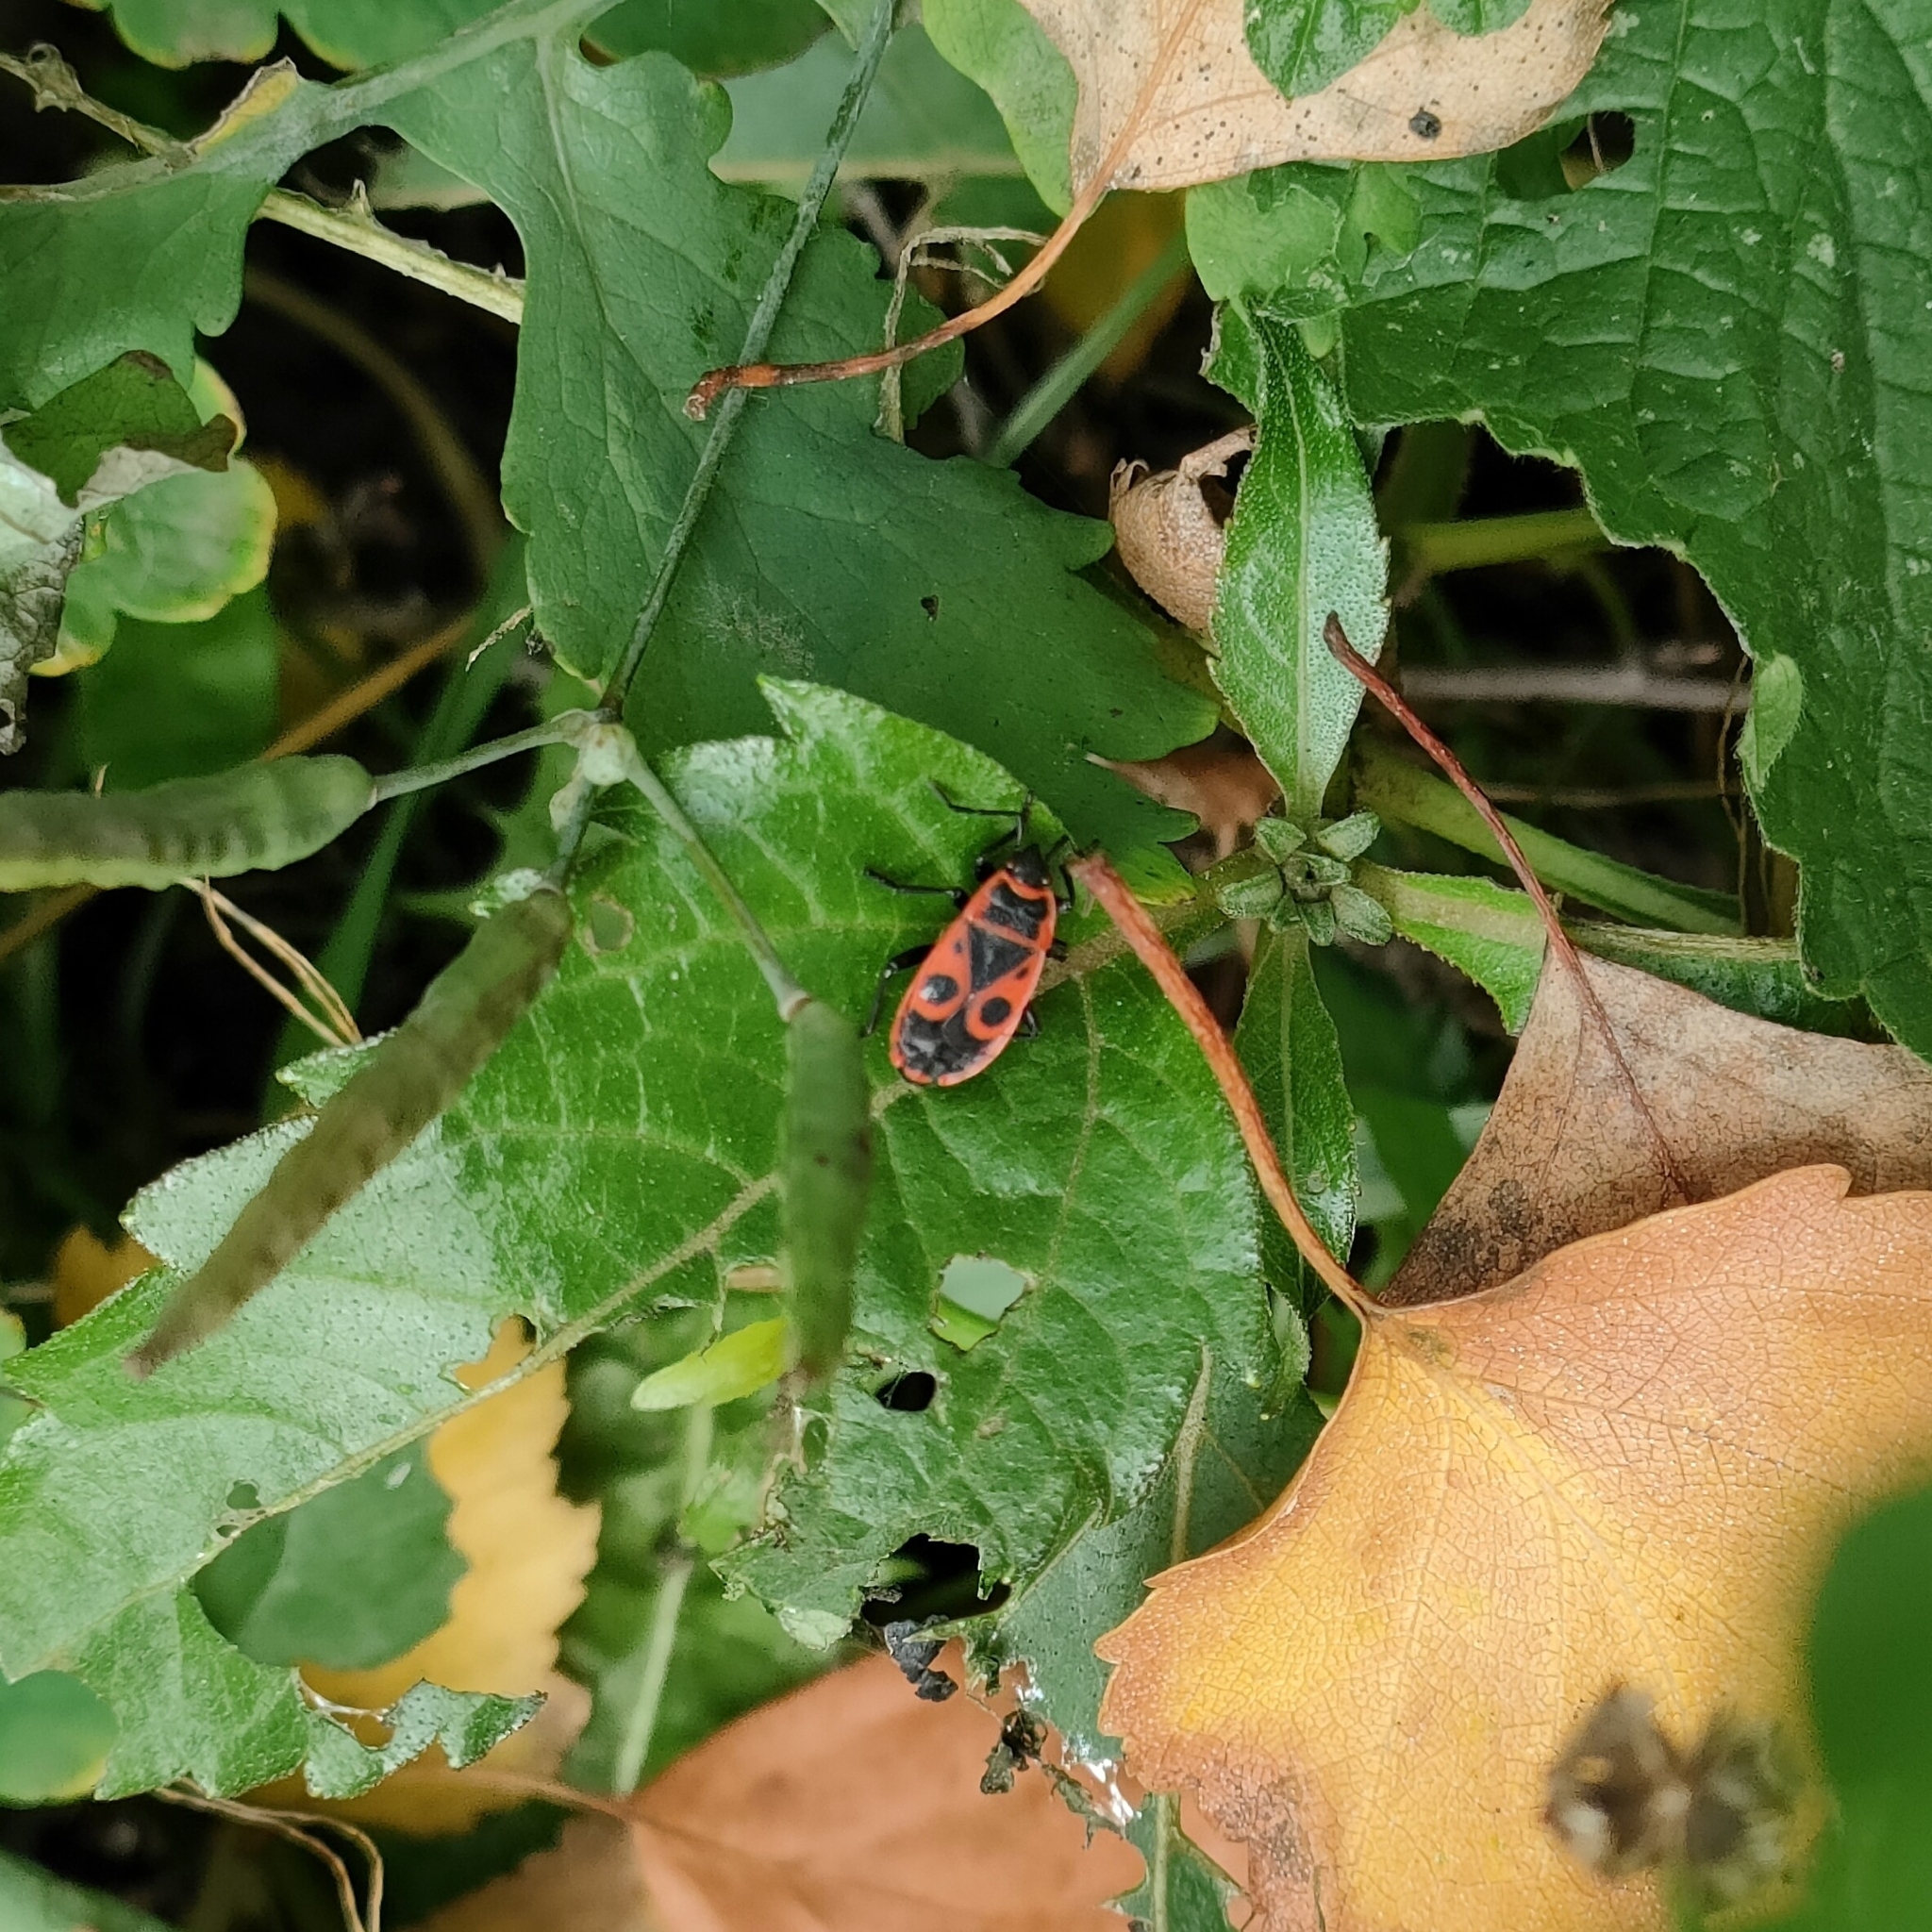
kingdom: Animalia
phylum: Arthropoda
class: Insecta
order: Hemiptera
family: Pyrrhocoridae
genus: Pyrrhocoris
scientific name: Pyrrhocoris apterus
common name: Firebug
